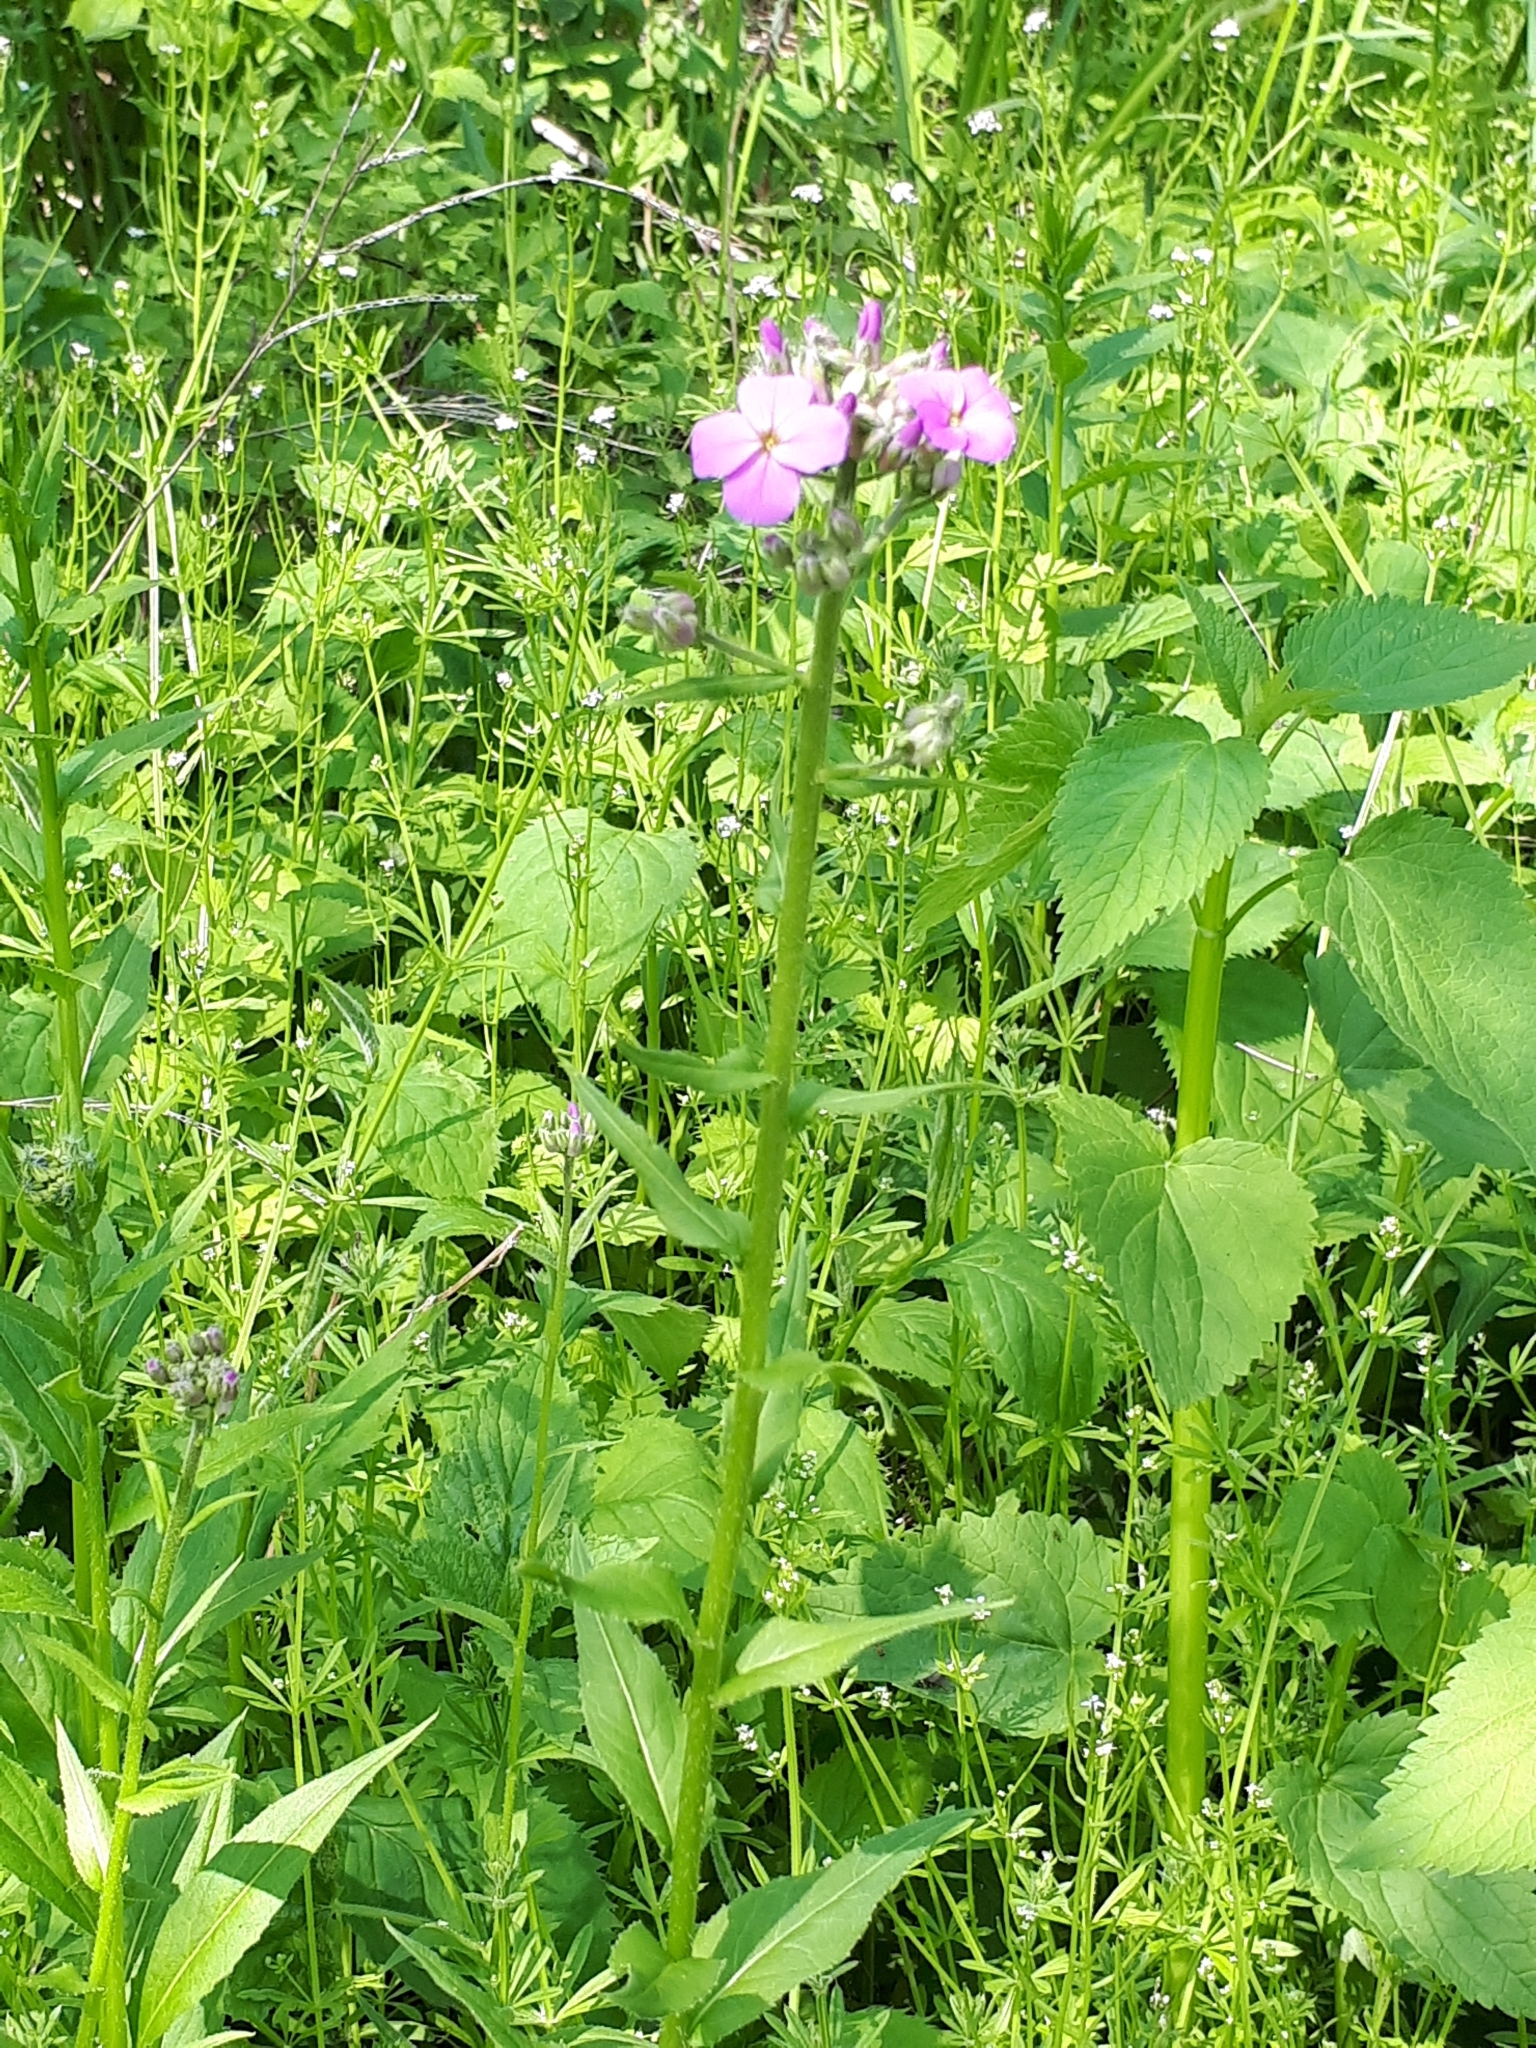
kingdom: Plantae
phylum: Tracheophyta
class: Magnoliopsida
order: Brassicales
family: Brassicaceae
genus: Hesperis
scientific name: Hesperis matronalis
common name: Dame's-violet
